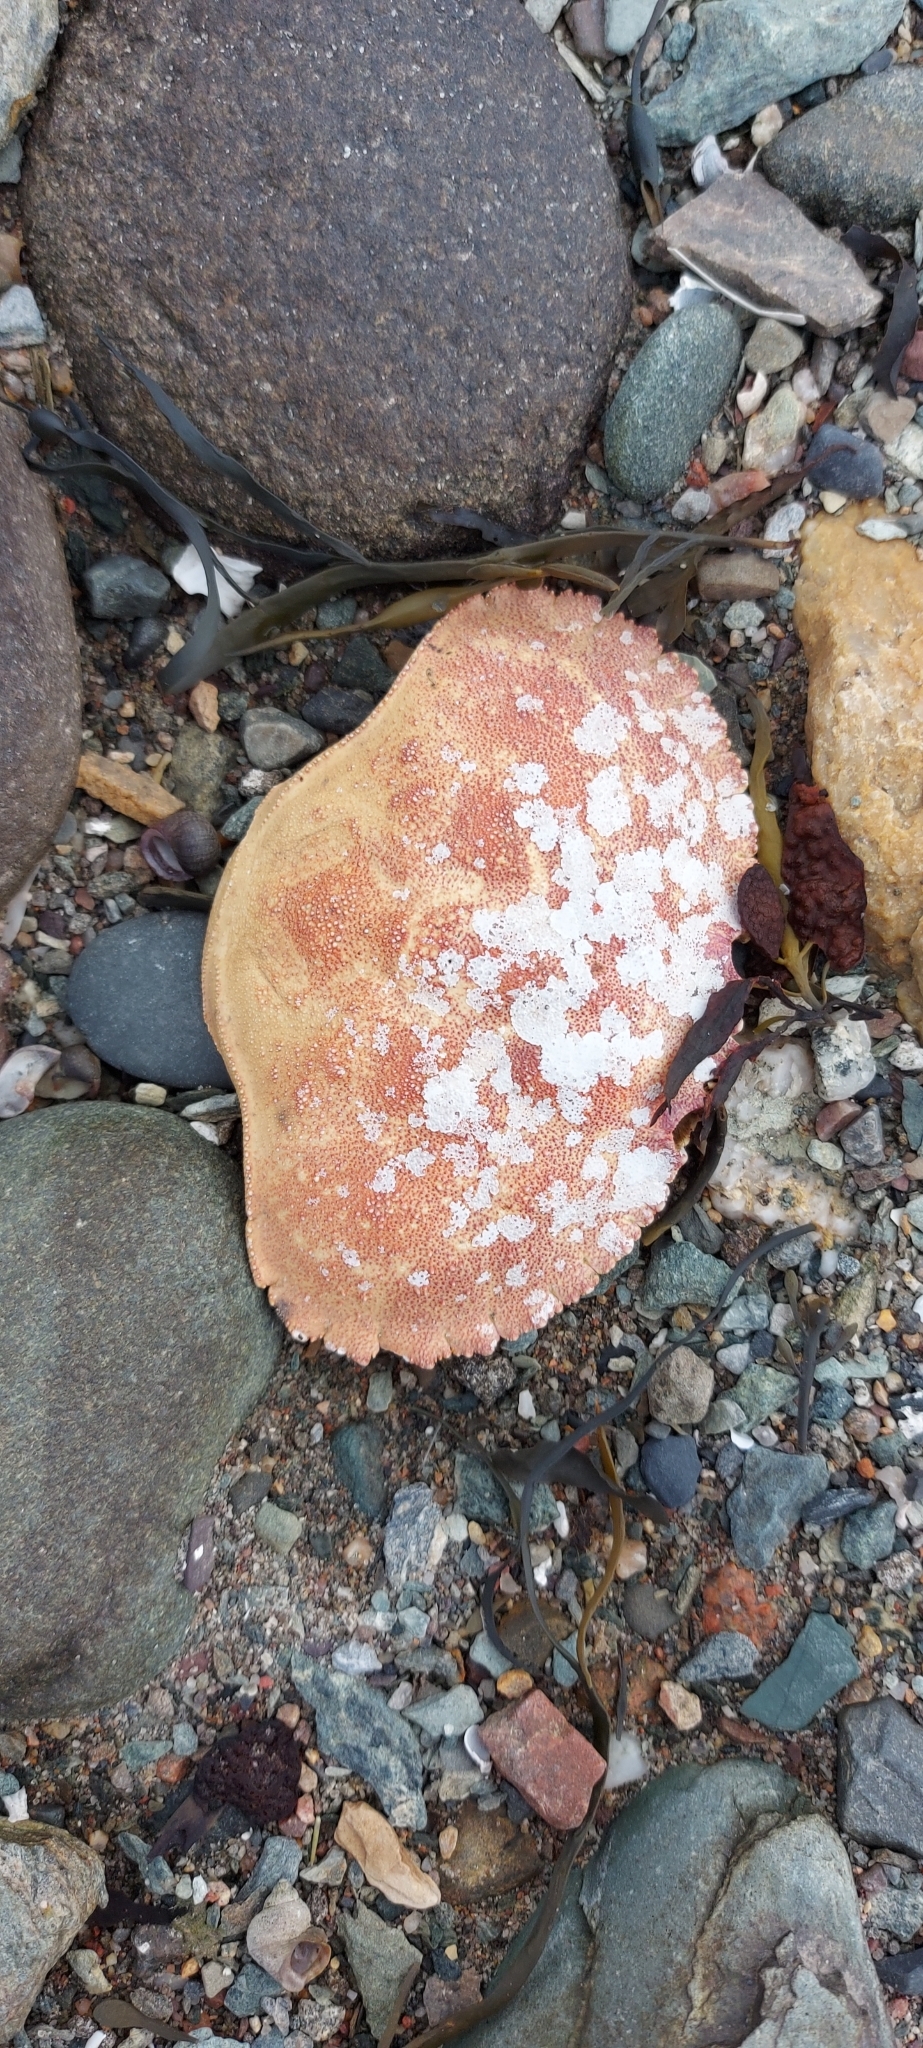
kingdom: Animalia
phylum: Arthropoda
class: Malacostraca
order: Decapoda
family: Cancridae
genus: Cancer
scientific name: Cancer borealis
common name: Jonah crab
